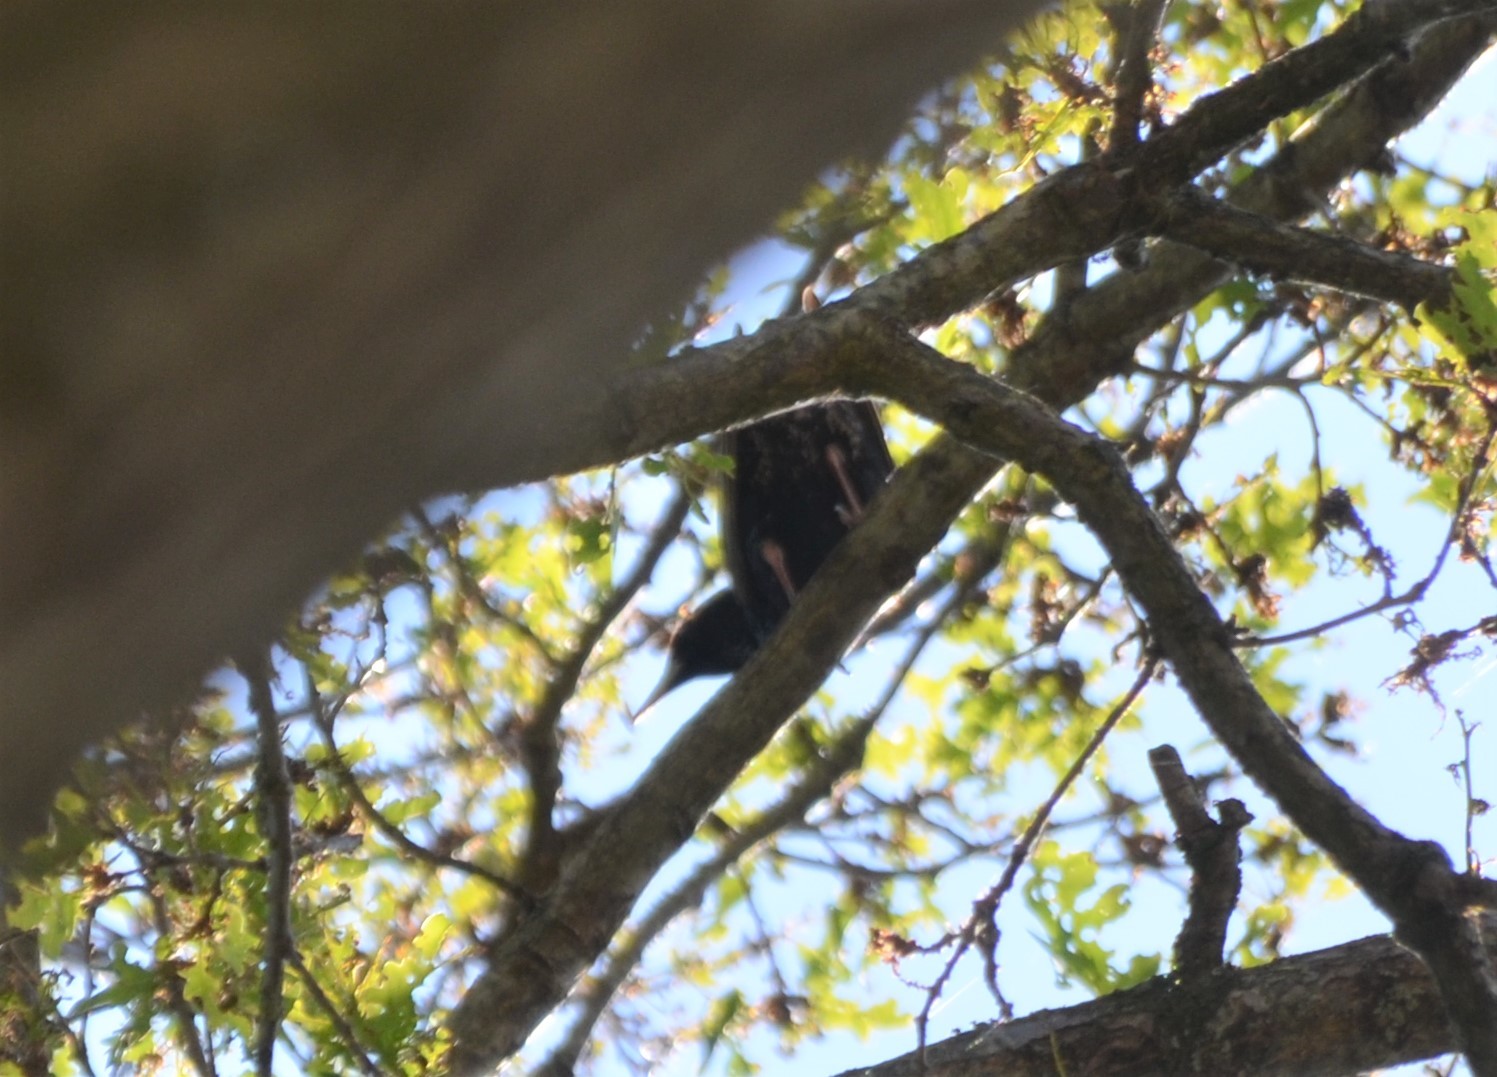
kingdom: Animalia
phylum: Chordata
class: Aves
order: Passeriformes
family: Sturnidae
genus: Sturnus
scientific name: Sturnus vulgaris
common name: Common starling
